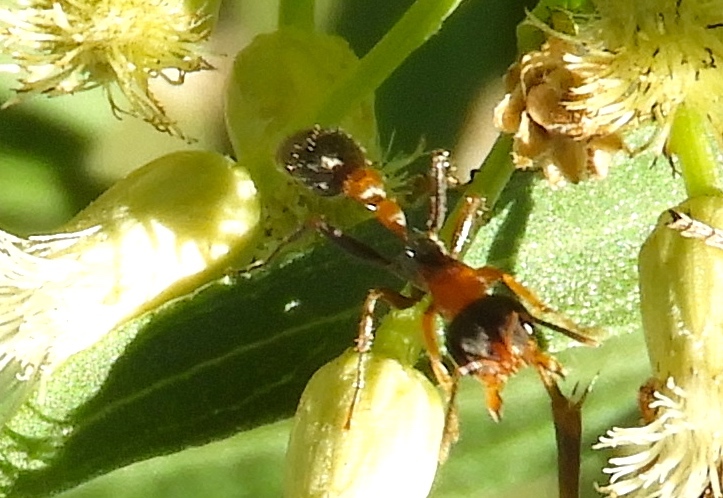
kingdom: Animalia
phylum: Arthropoda
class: Insecta
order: Hymenoptera
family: Formicidae
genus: Pseudomyrmex
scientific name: Pseudomyrmex gracilis
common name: Graceful twig ant
